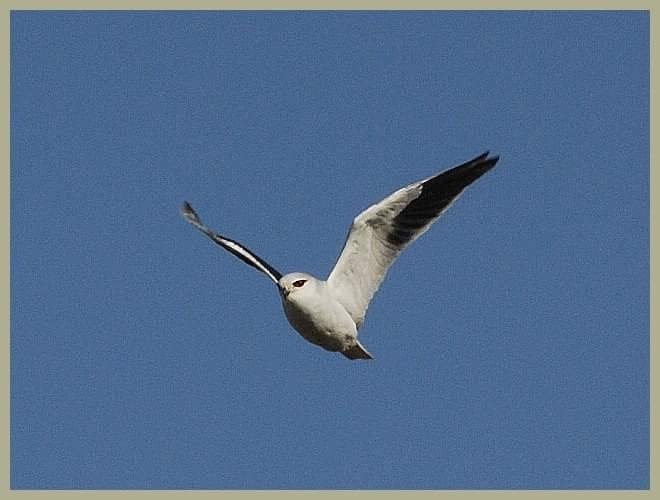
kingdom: Animalia
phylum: Chordata
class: Aves
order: Accipitriformes
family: Accipitridae
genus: Elanus
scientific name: Elanus caeruleus
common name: Black-winged kite
